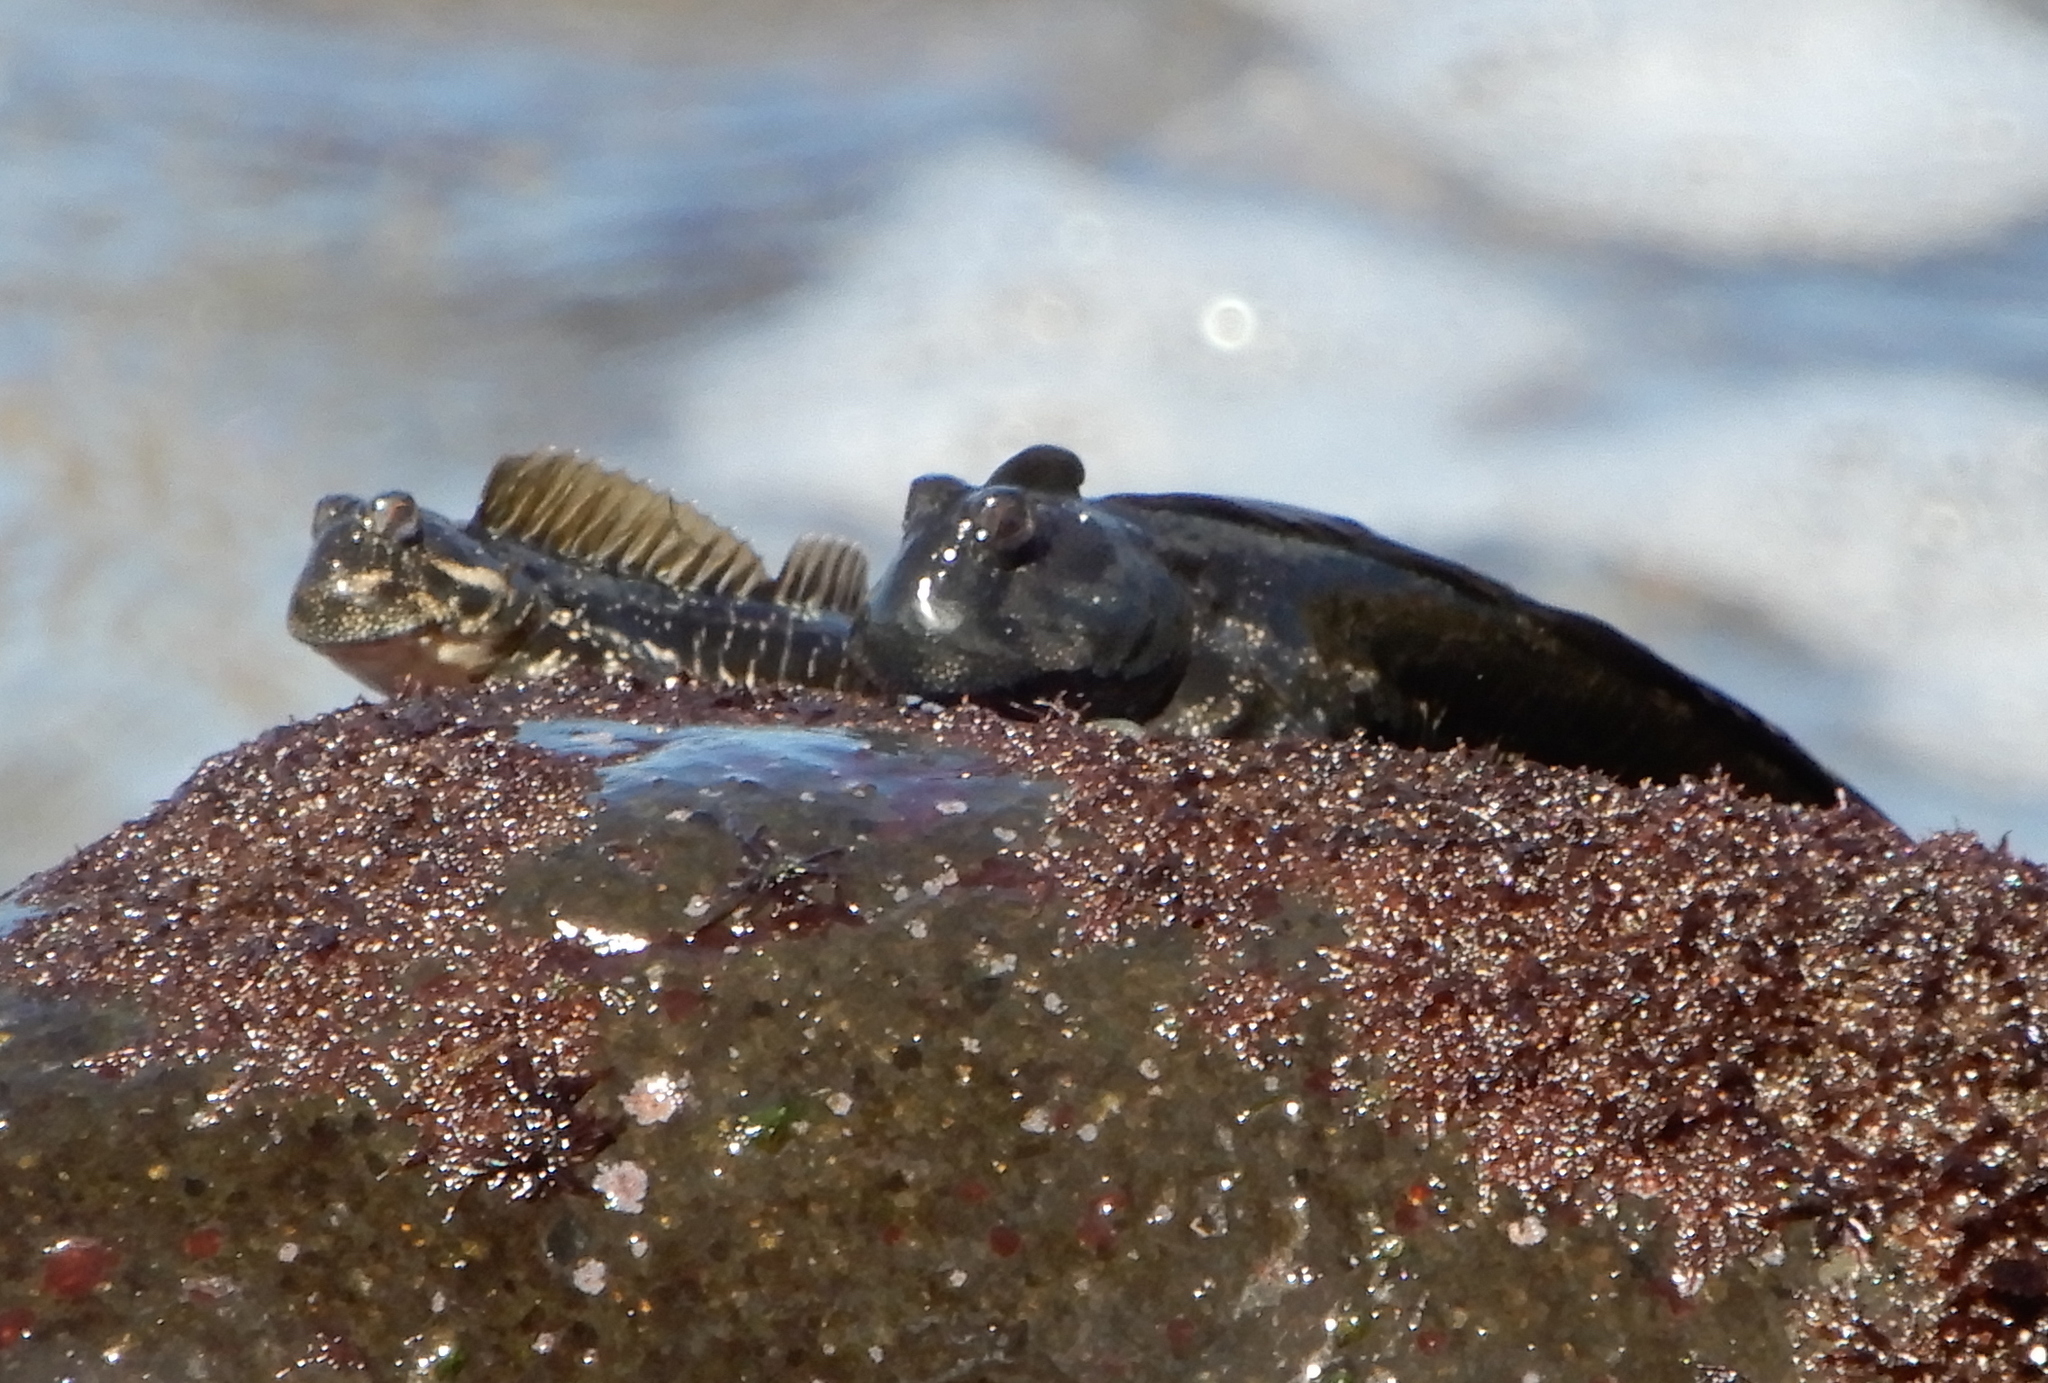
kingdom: Animalia
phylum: Chordata
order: Perciformes
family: Blenniidae
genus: Alticus
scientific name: Alticus simplicirrus
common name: Marquesan rockskipper
